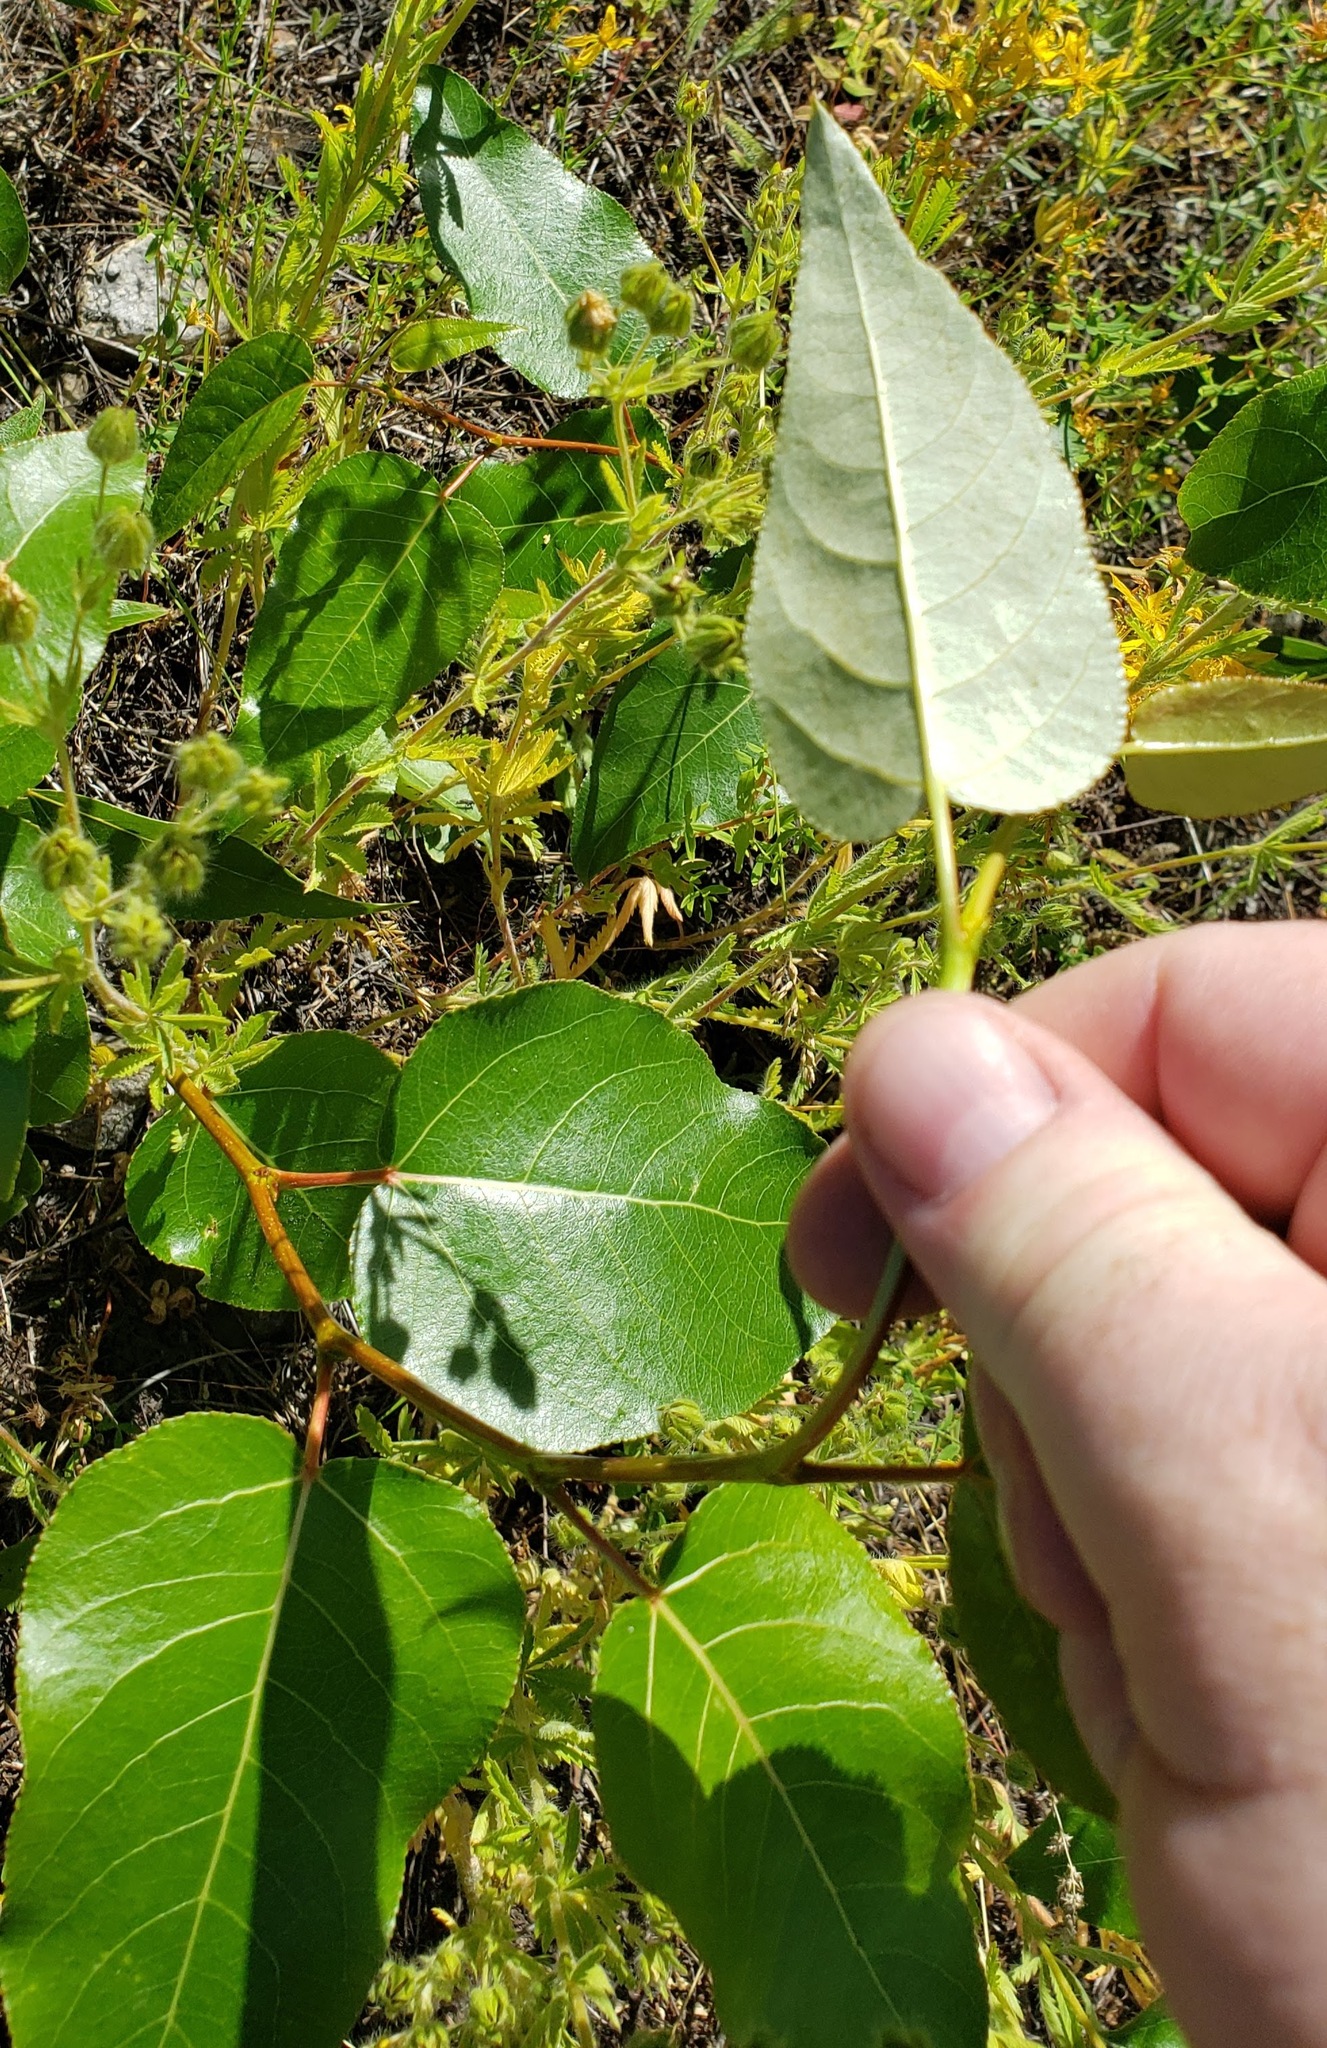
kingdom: Plantae
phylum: Tracheophyta
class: Magnoliopsida
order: Malpighiales
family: Salicaceae
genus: Populus
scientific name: Populus trichocarpa
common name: Black cottonwood
